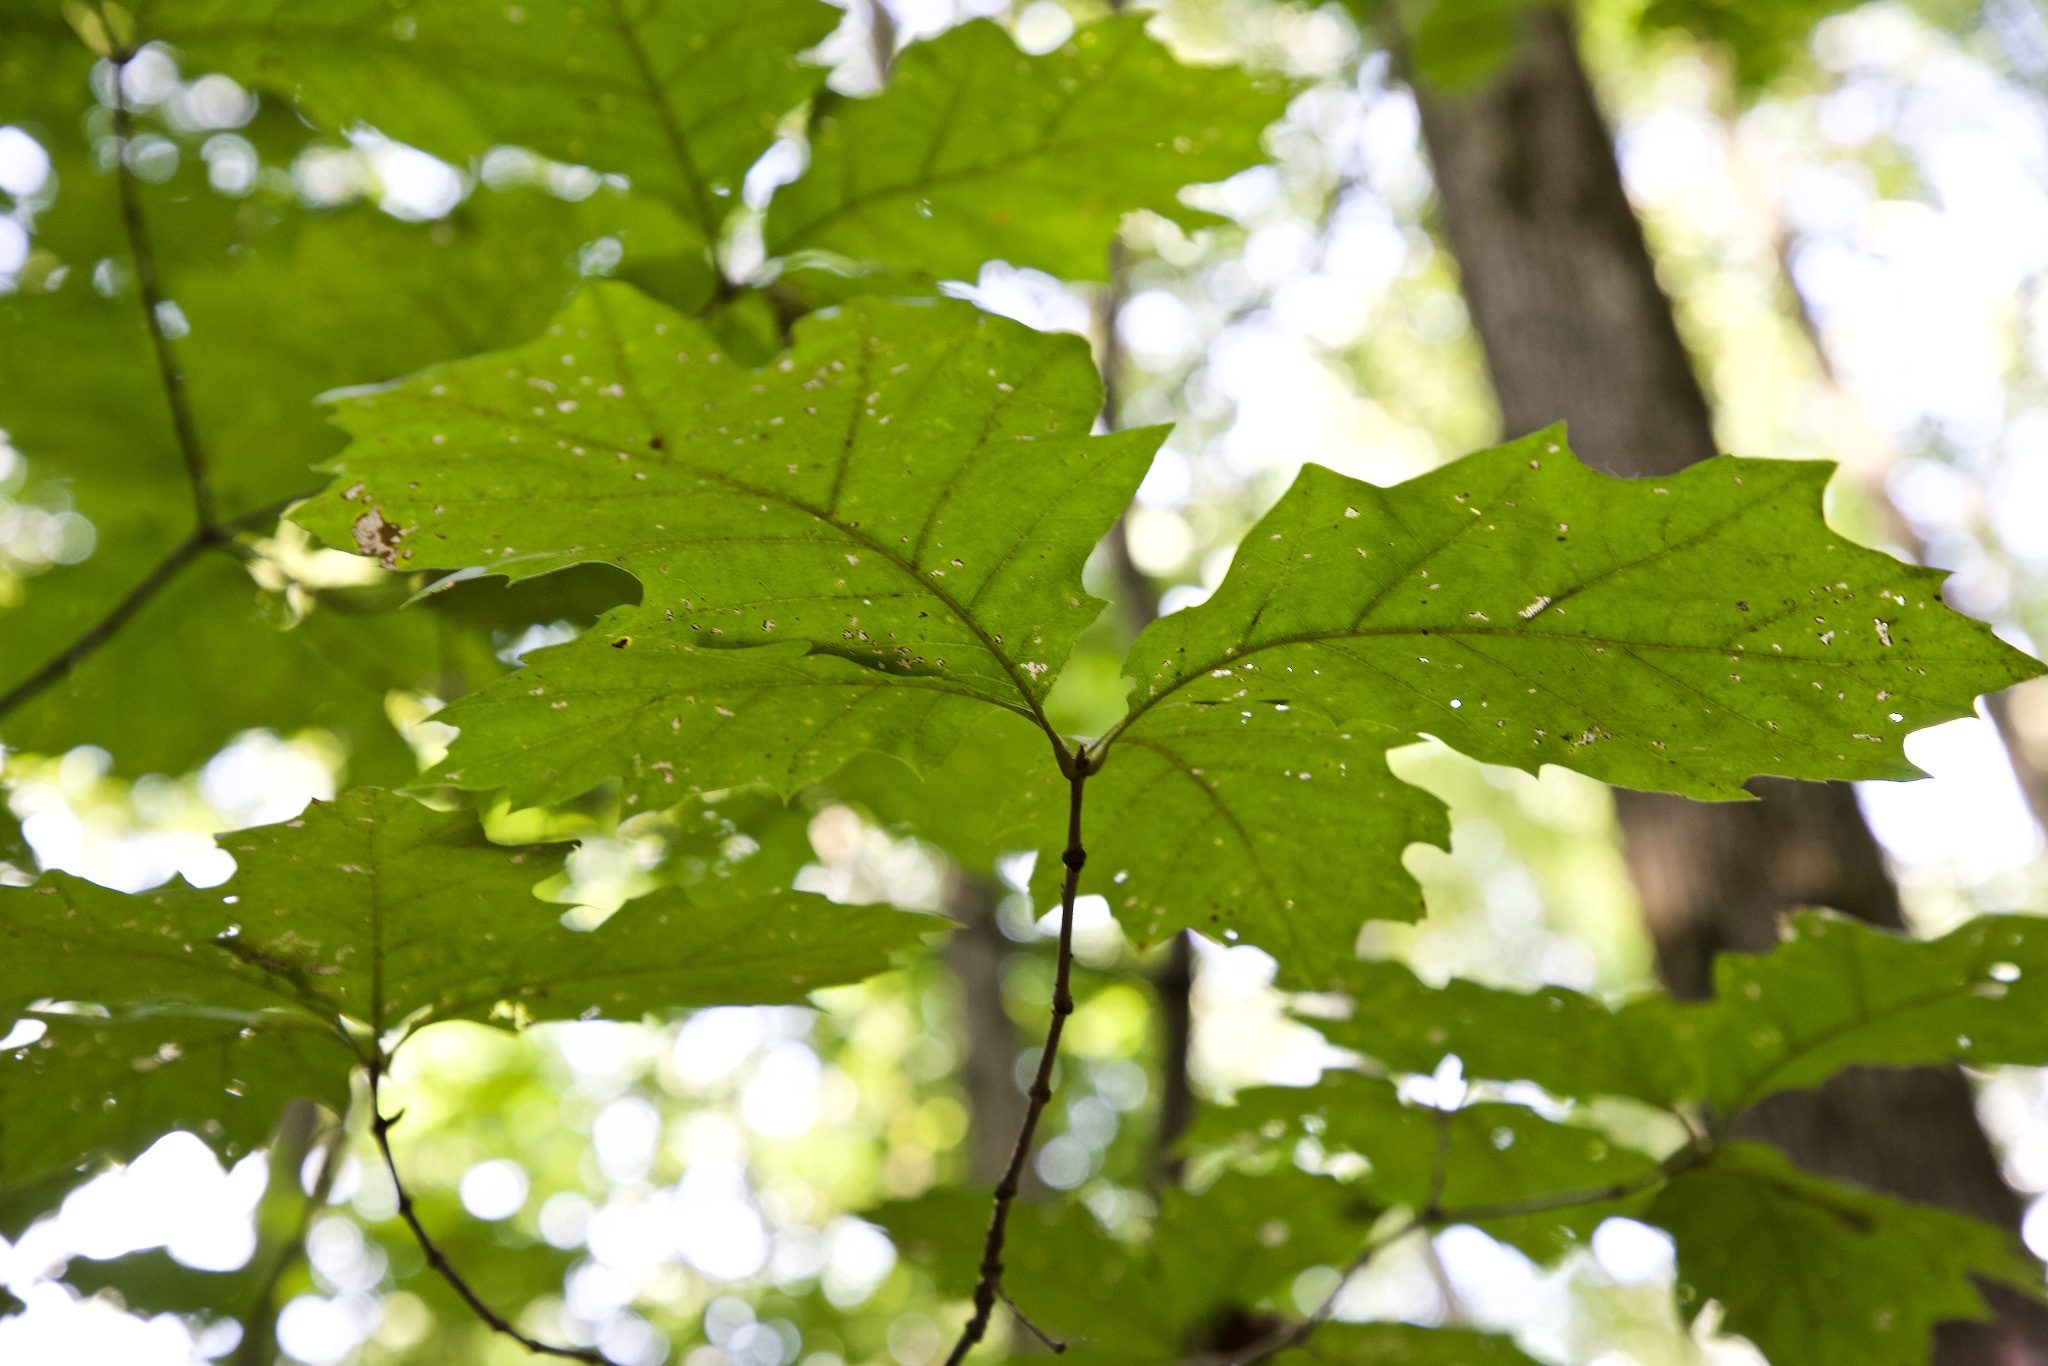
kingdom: Plantae
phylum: Tracheophyta
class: Magnoliopsida
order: Fagales
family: Fagaceae
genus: Quercus
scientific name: Quercus rubra
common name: Red oak
